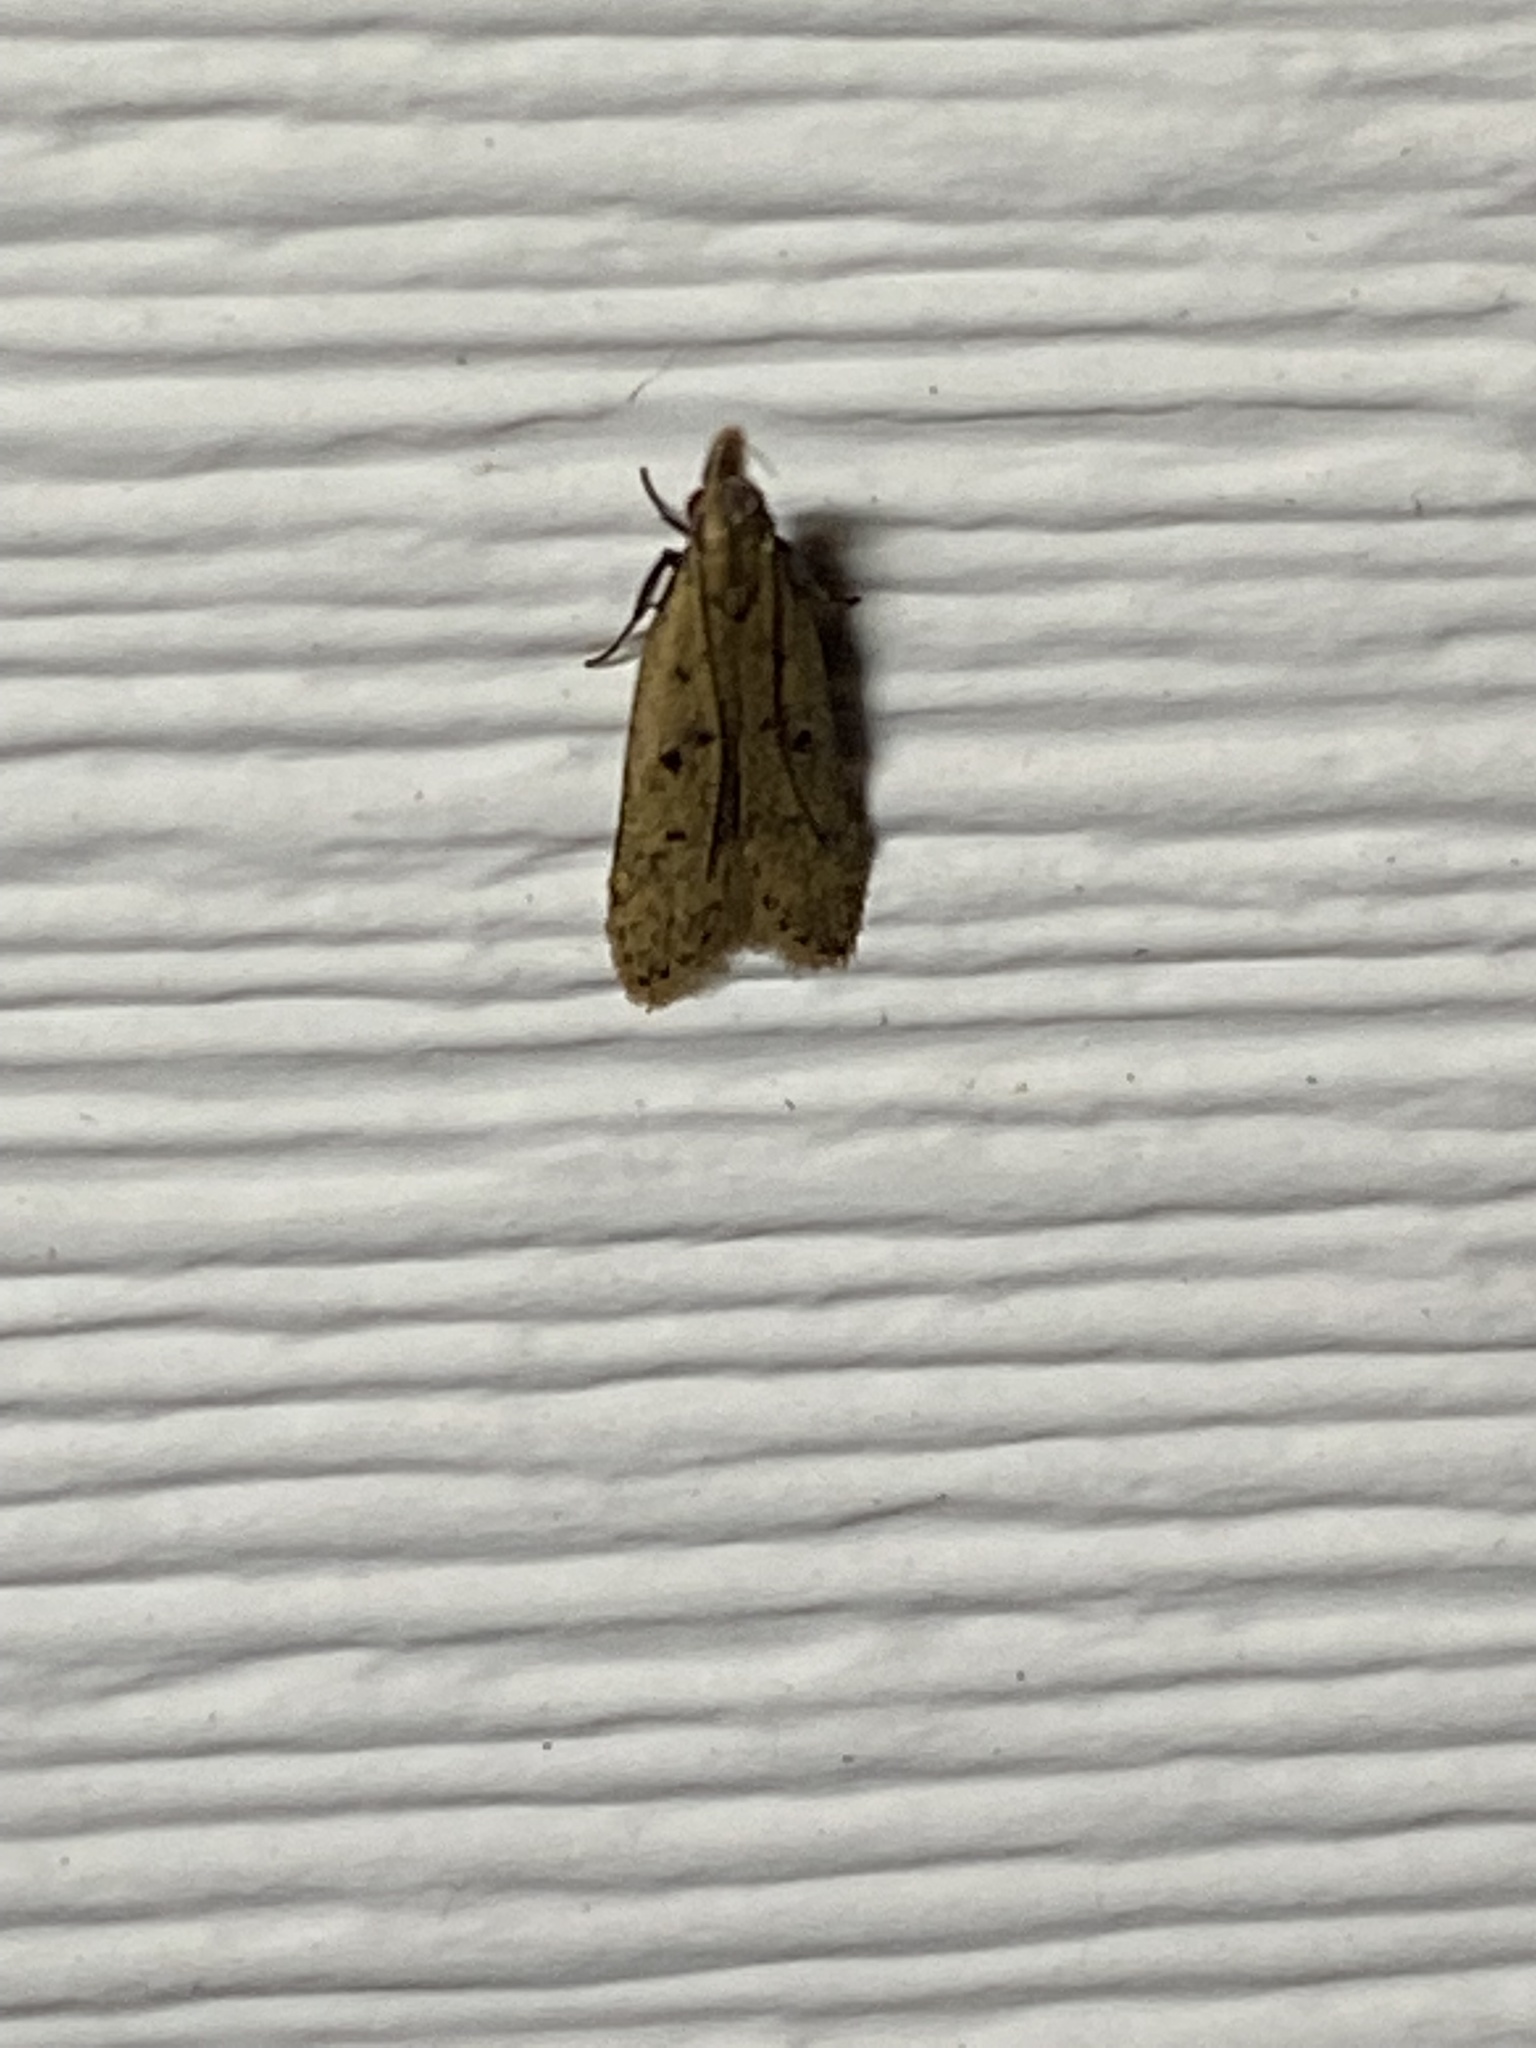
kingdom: Animalia
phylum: Arthropoda
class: Insecta
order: Lepidoptera
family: Gelechiidae
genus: Dichomeris
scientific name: Dichomeris punctipennella
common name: Many-spotted dichomeris moth
